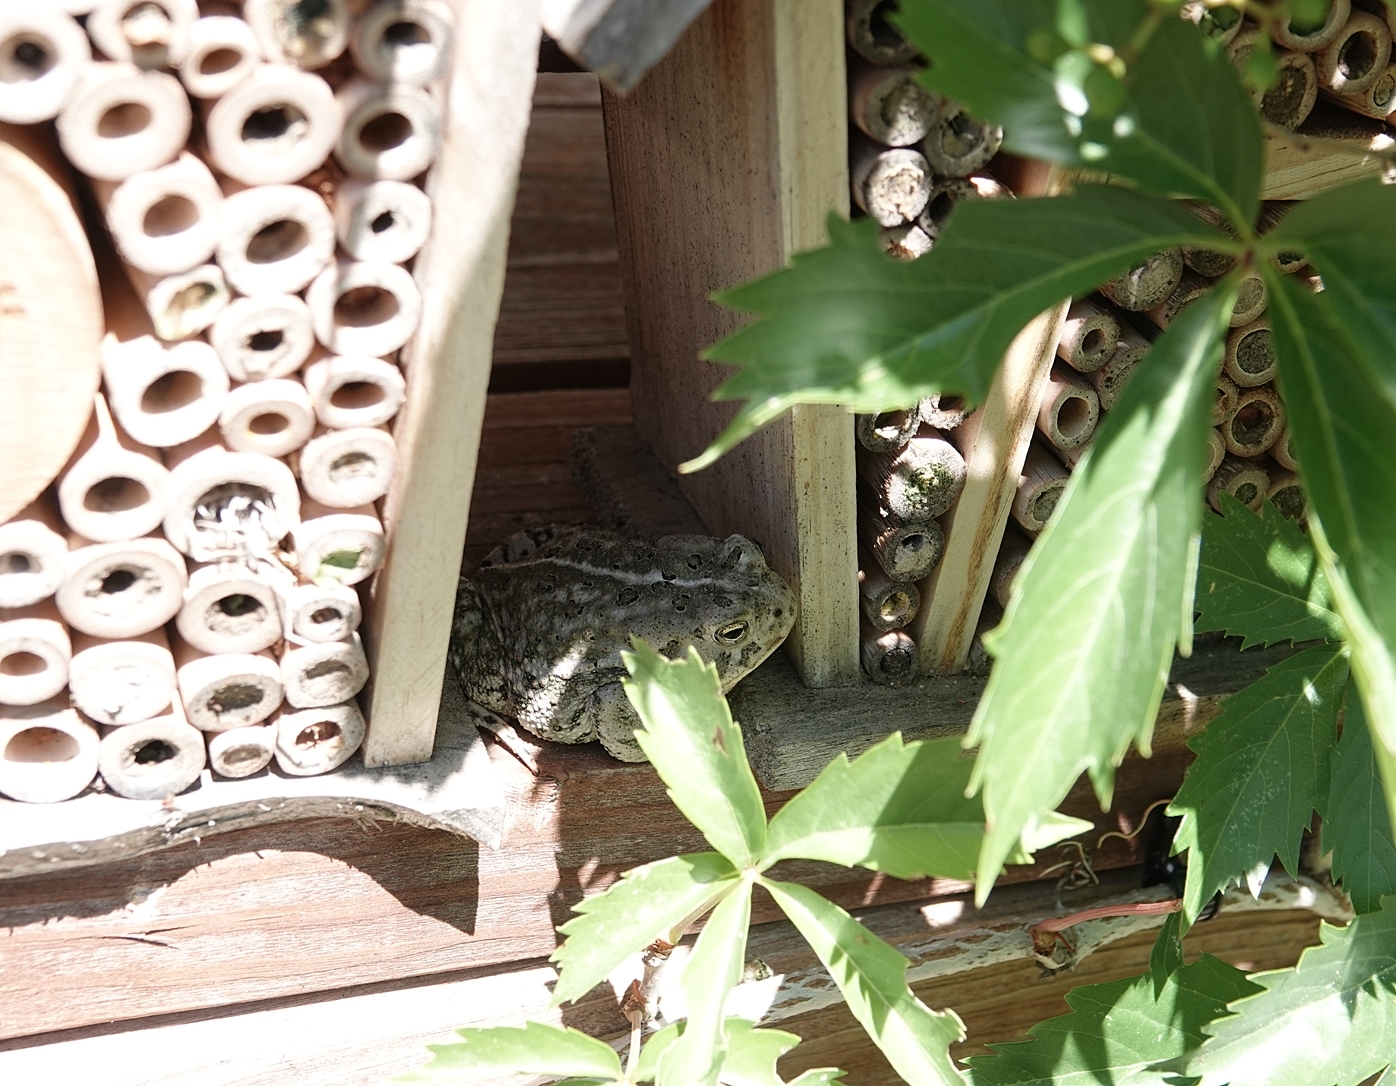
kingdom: Animalia
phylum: Chordata
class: Amphibia
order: Anura
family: Bufonidae
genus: Anaxyrus
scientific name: Anaxyrus woodhousii
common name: Woodhouse's toad
